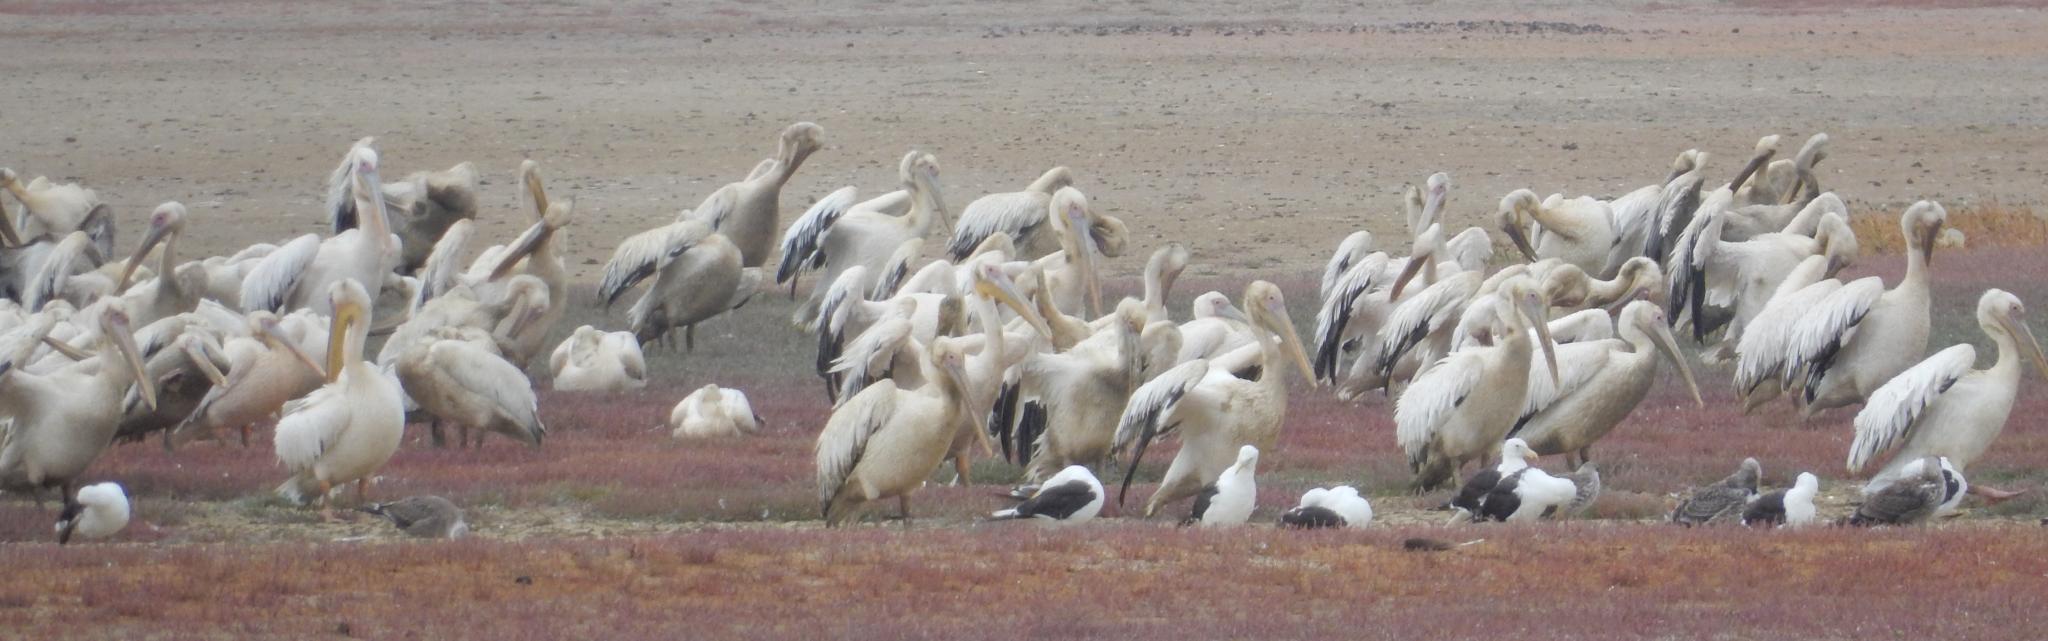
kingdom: Animalia
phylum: Chordata
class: Aves
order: Pelecaniformes
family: Pelecanidae
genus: Pelecanus
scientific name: Pelecanus onocrotalus
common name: Great white pelican
